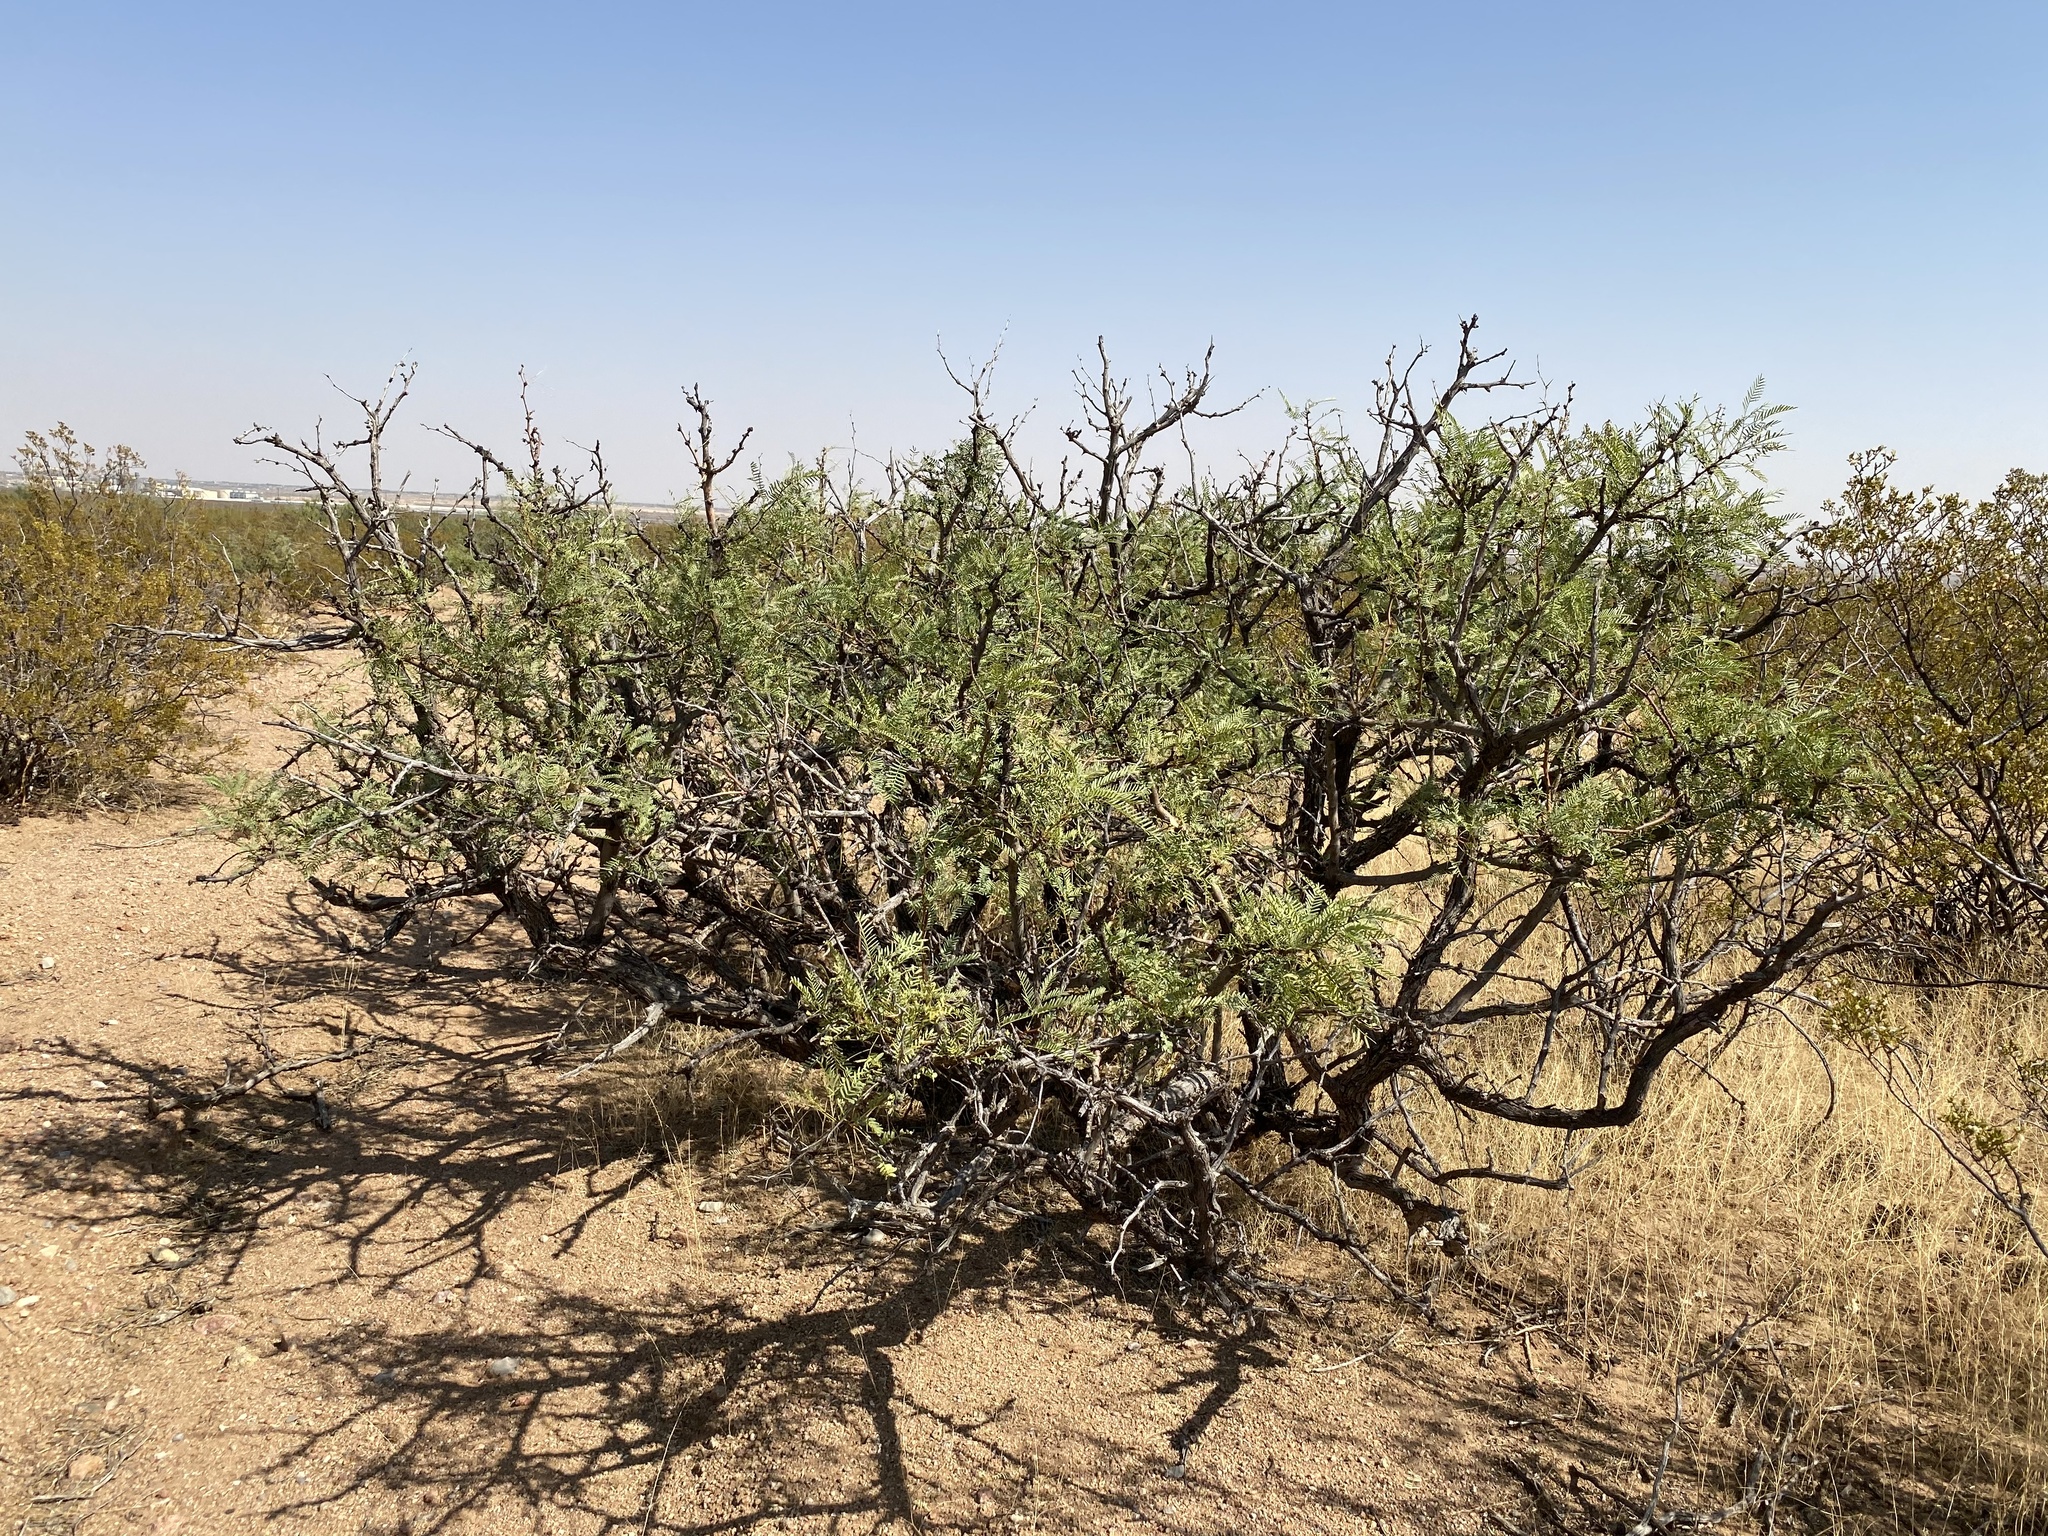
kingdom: Plantae
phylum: Tracheophyta
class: Magnoliopsida
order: Fabales
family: Fabaceae
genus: Prosopis
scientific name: Prosopis glandulosa
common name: Honey mesquite
